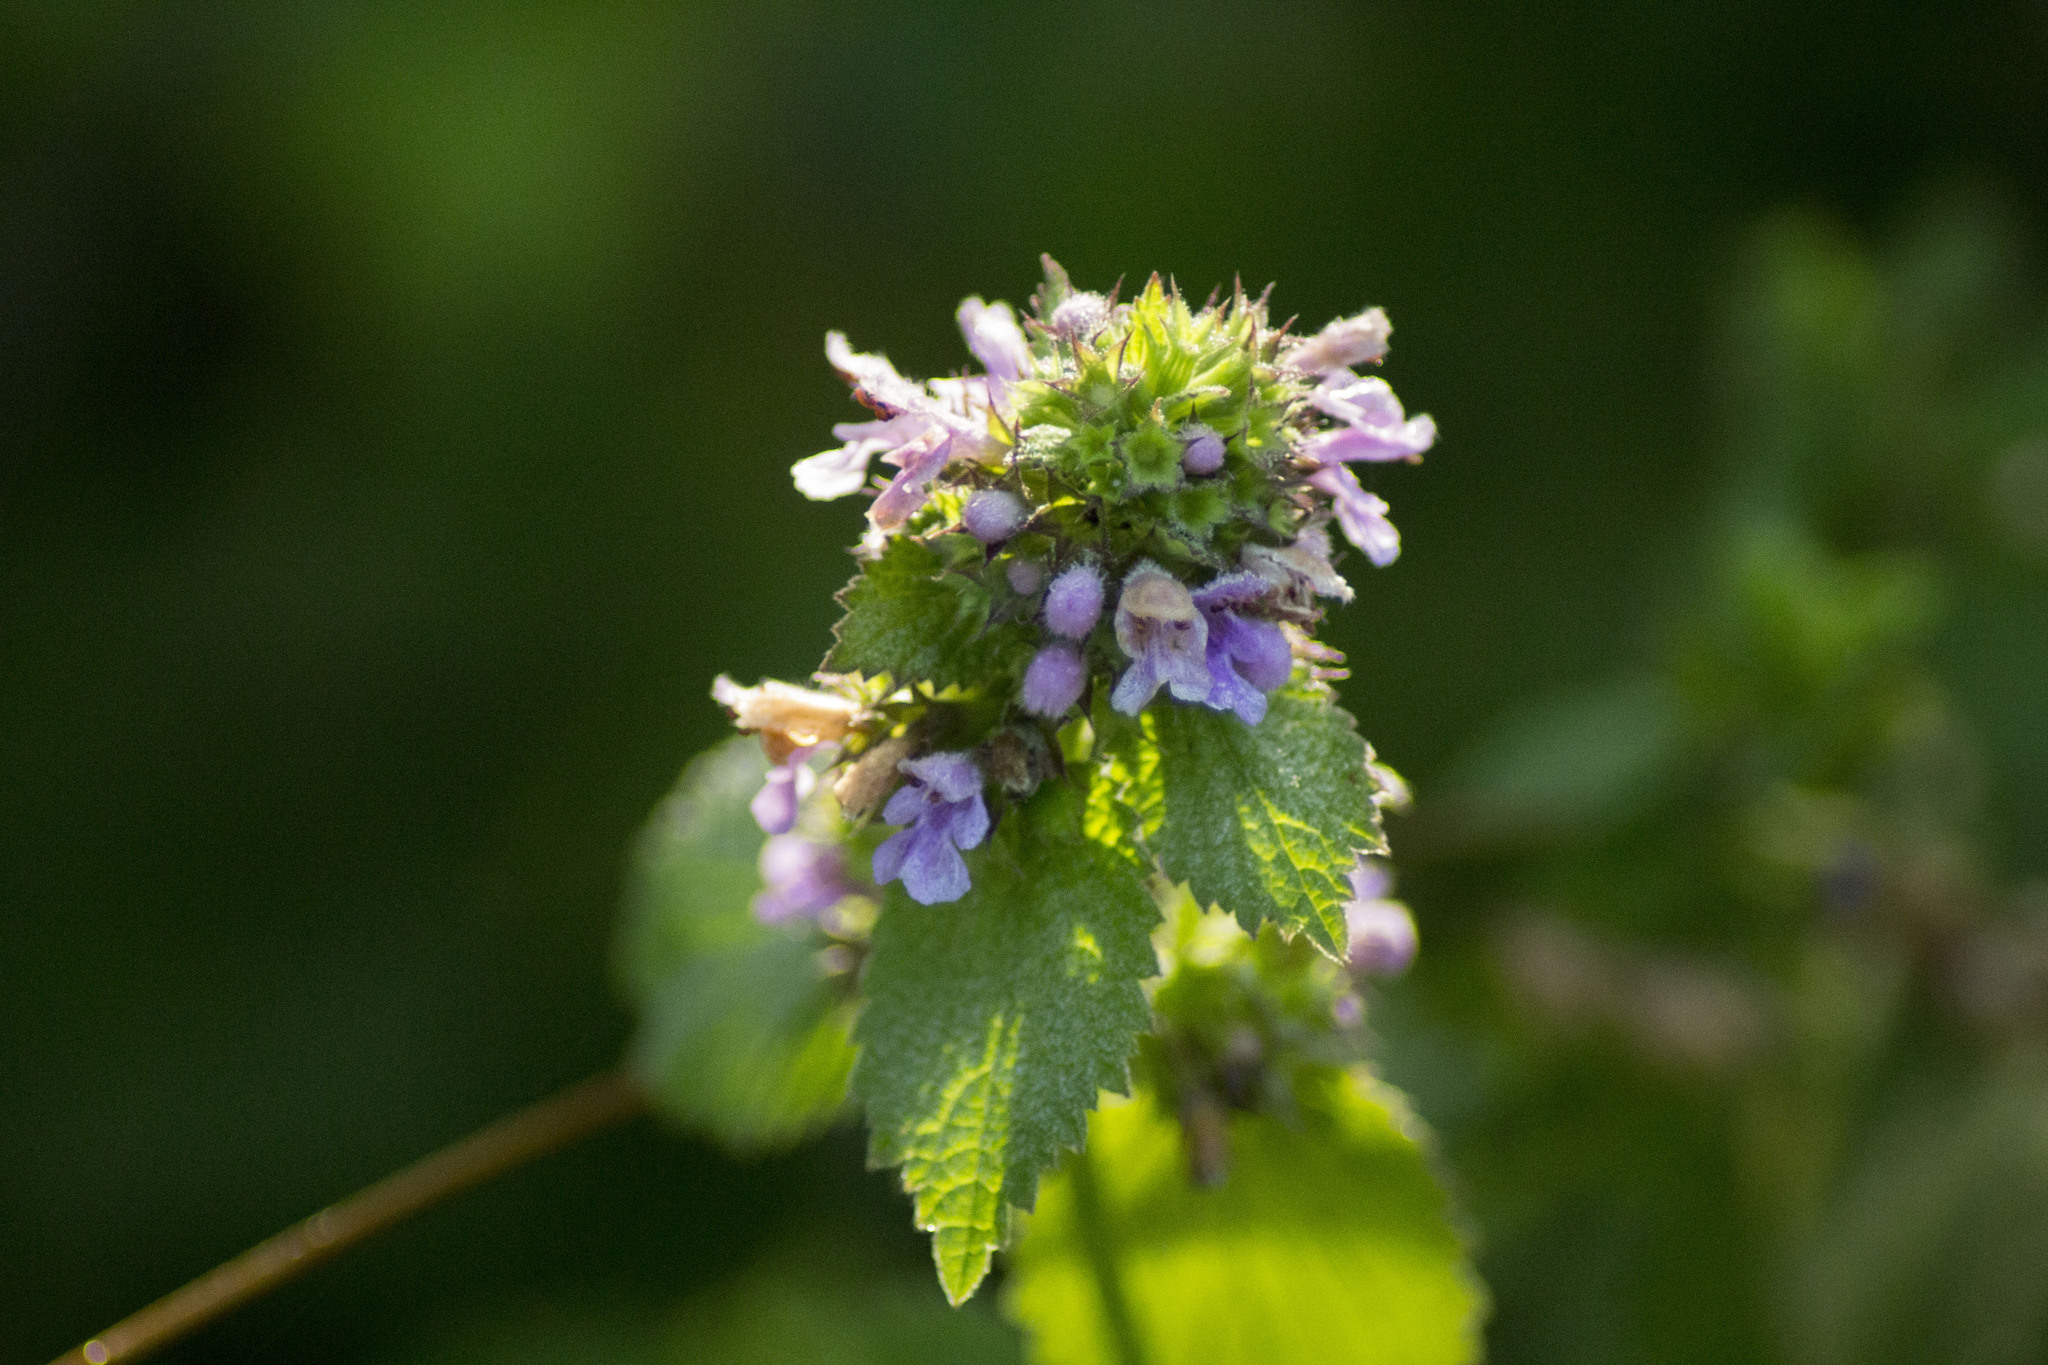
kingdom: Plantae
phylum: Tracheophyta
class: Magnoliopsida
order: Lamiales
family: Lamiaceae
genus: Ballota
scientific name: Ballota nigra
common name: Black horehound
